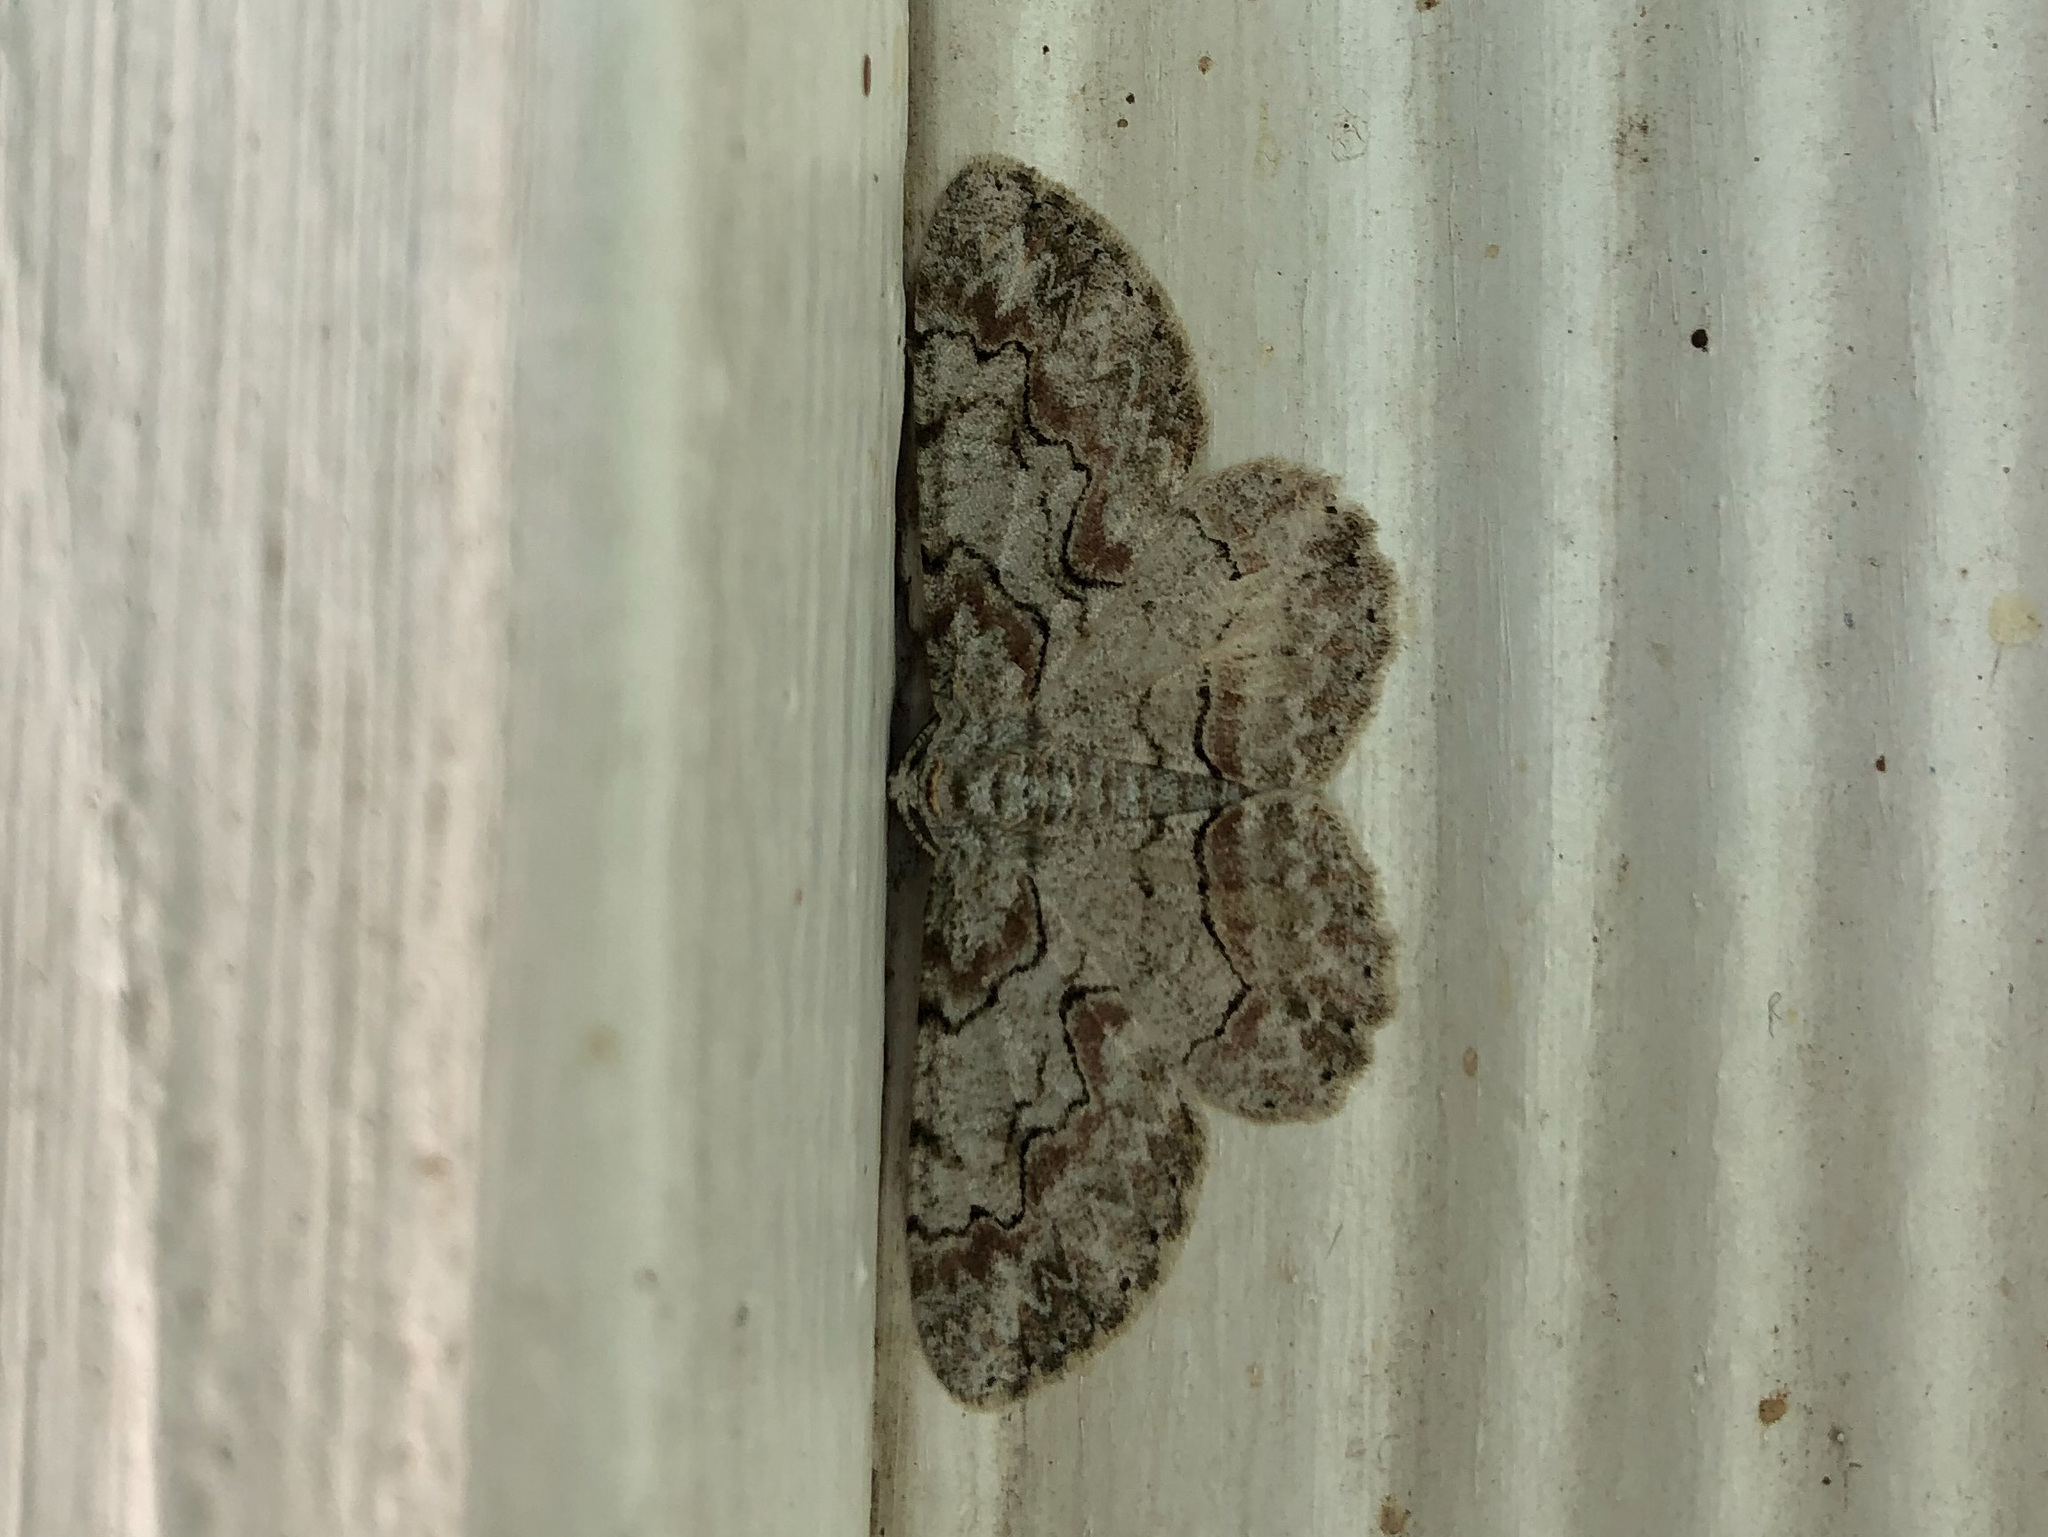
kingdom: Animalia
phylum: Arthropoda
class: Insecta
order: Lepidoptera
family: Geometridae
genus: Iridopsis
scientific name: Iridopsis defectaria
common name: Brown-shaded gray
